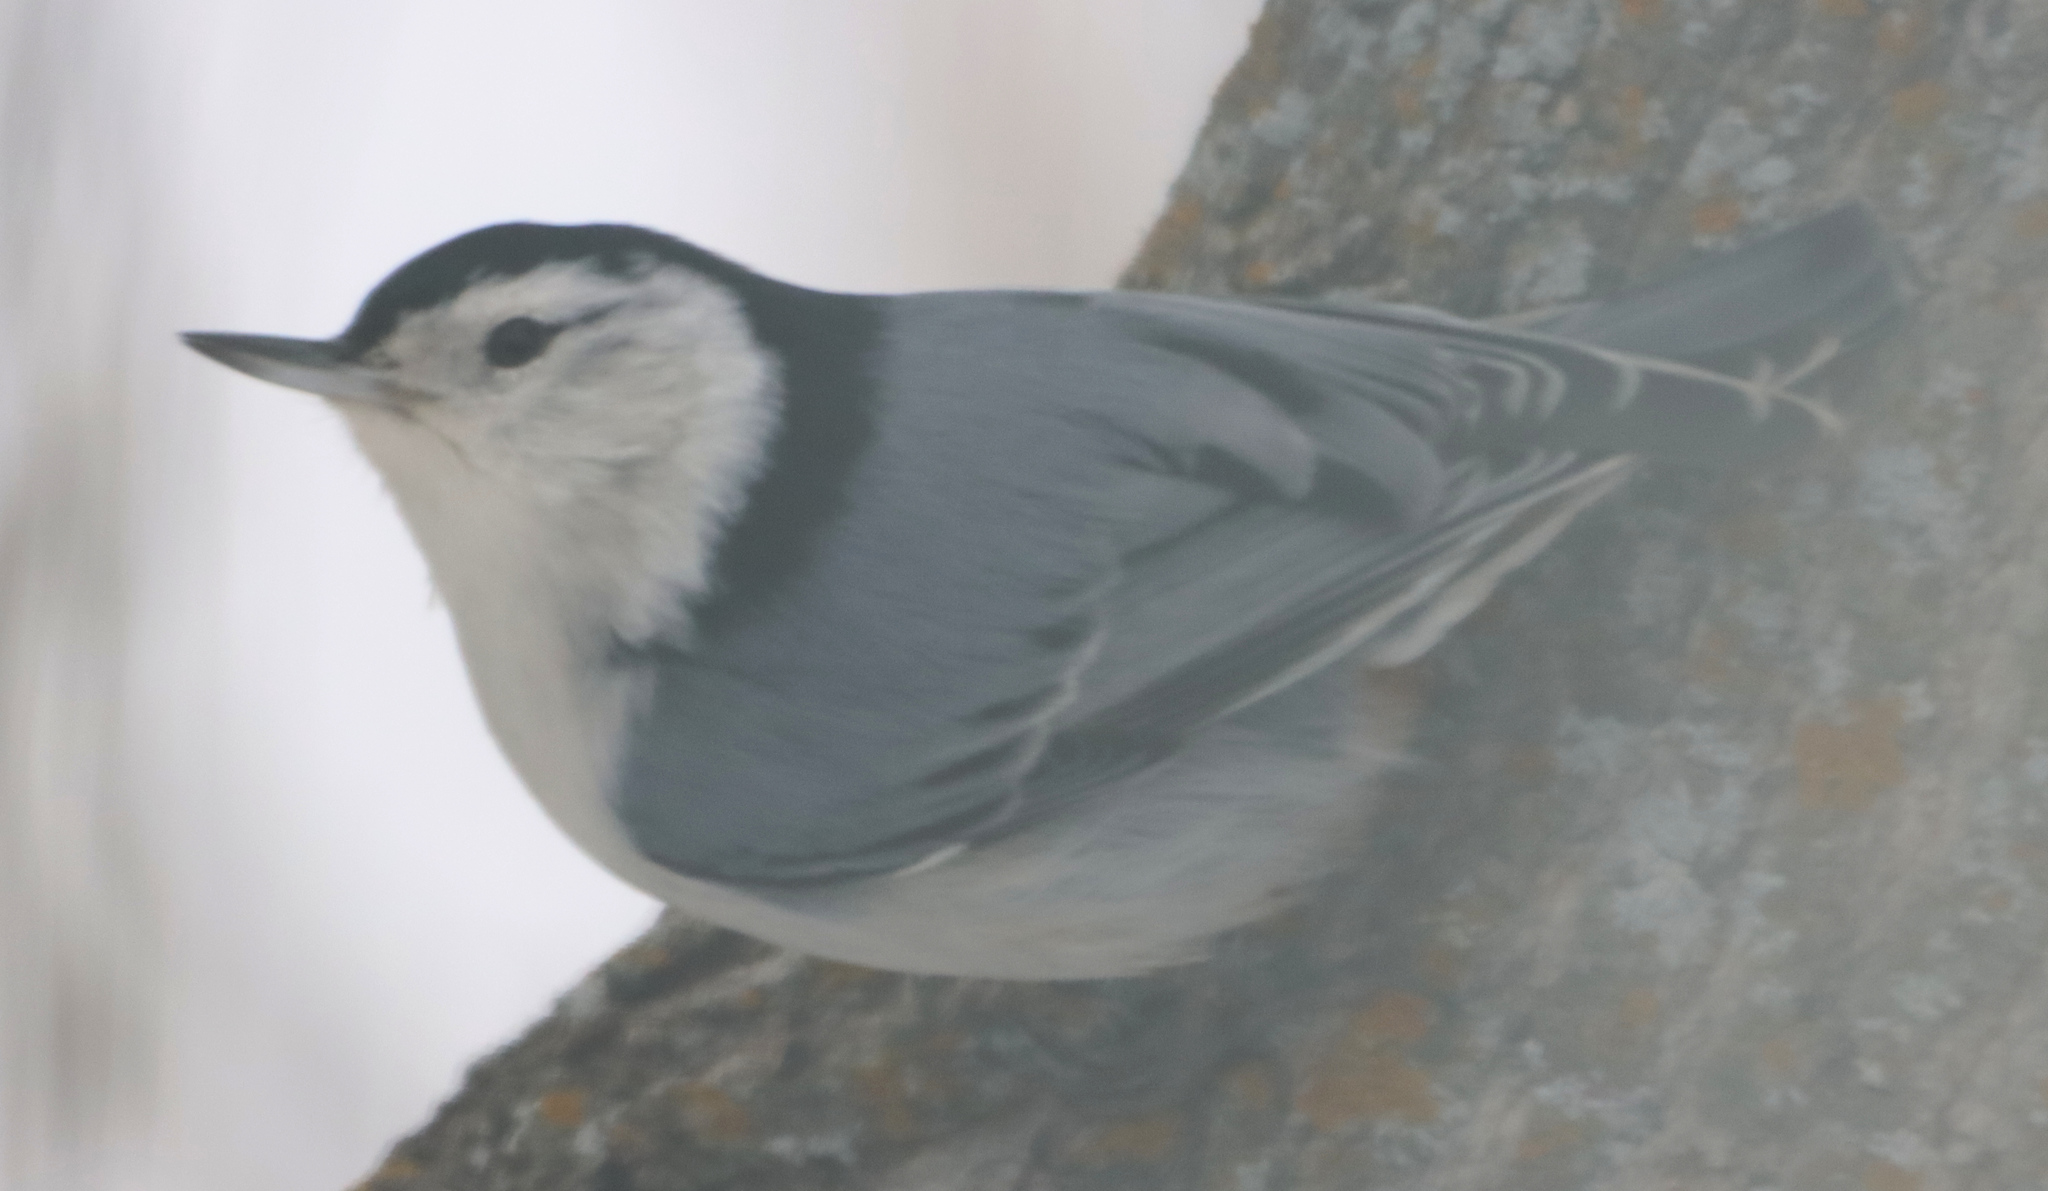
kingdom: Animalia
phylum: Chordata
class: Aves
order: Passeriformes
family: Sittidae
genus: Sitta
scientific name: Sitta carolinensis
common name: White-breasted nuthatch
